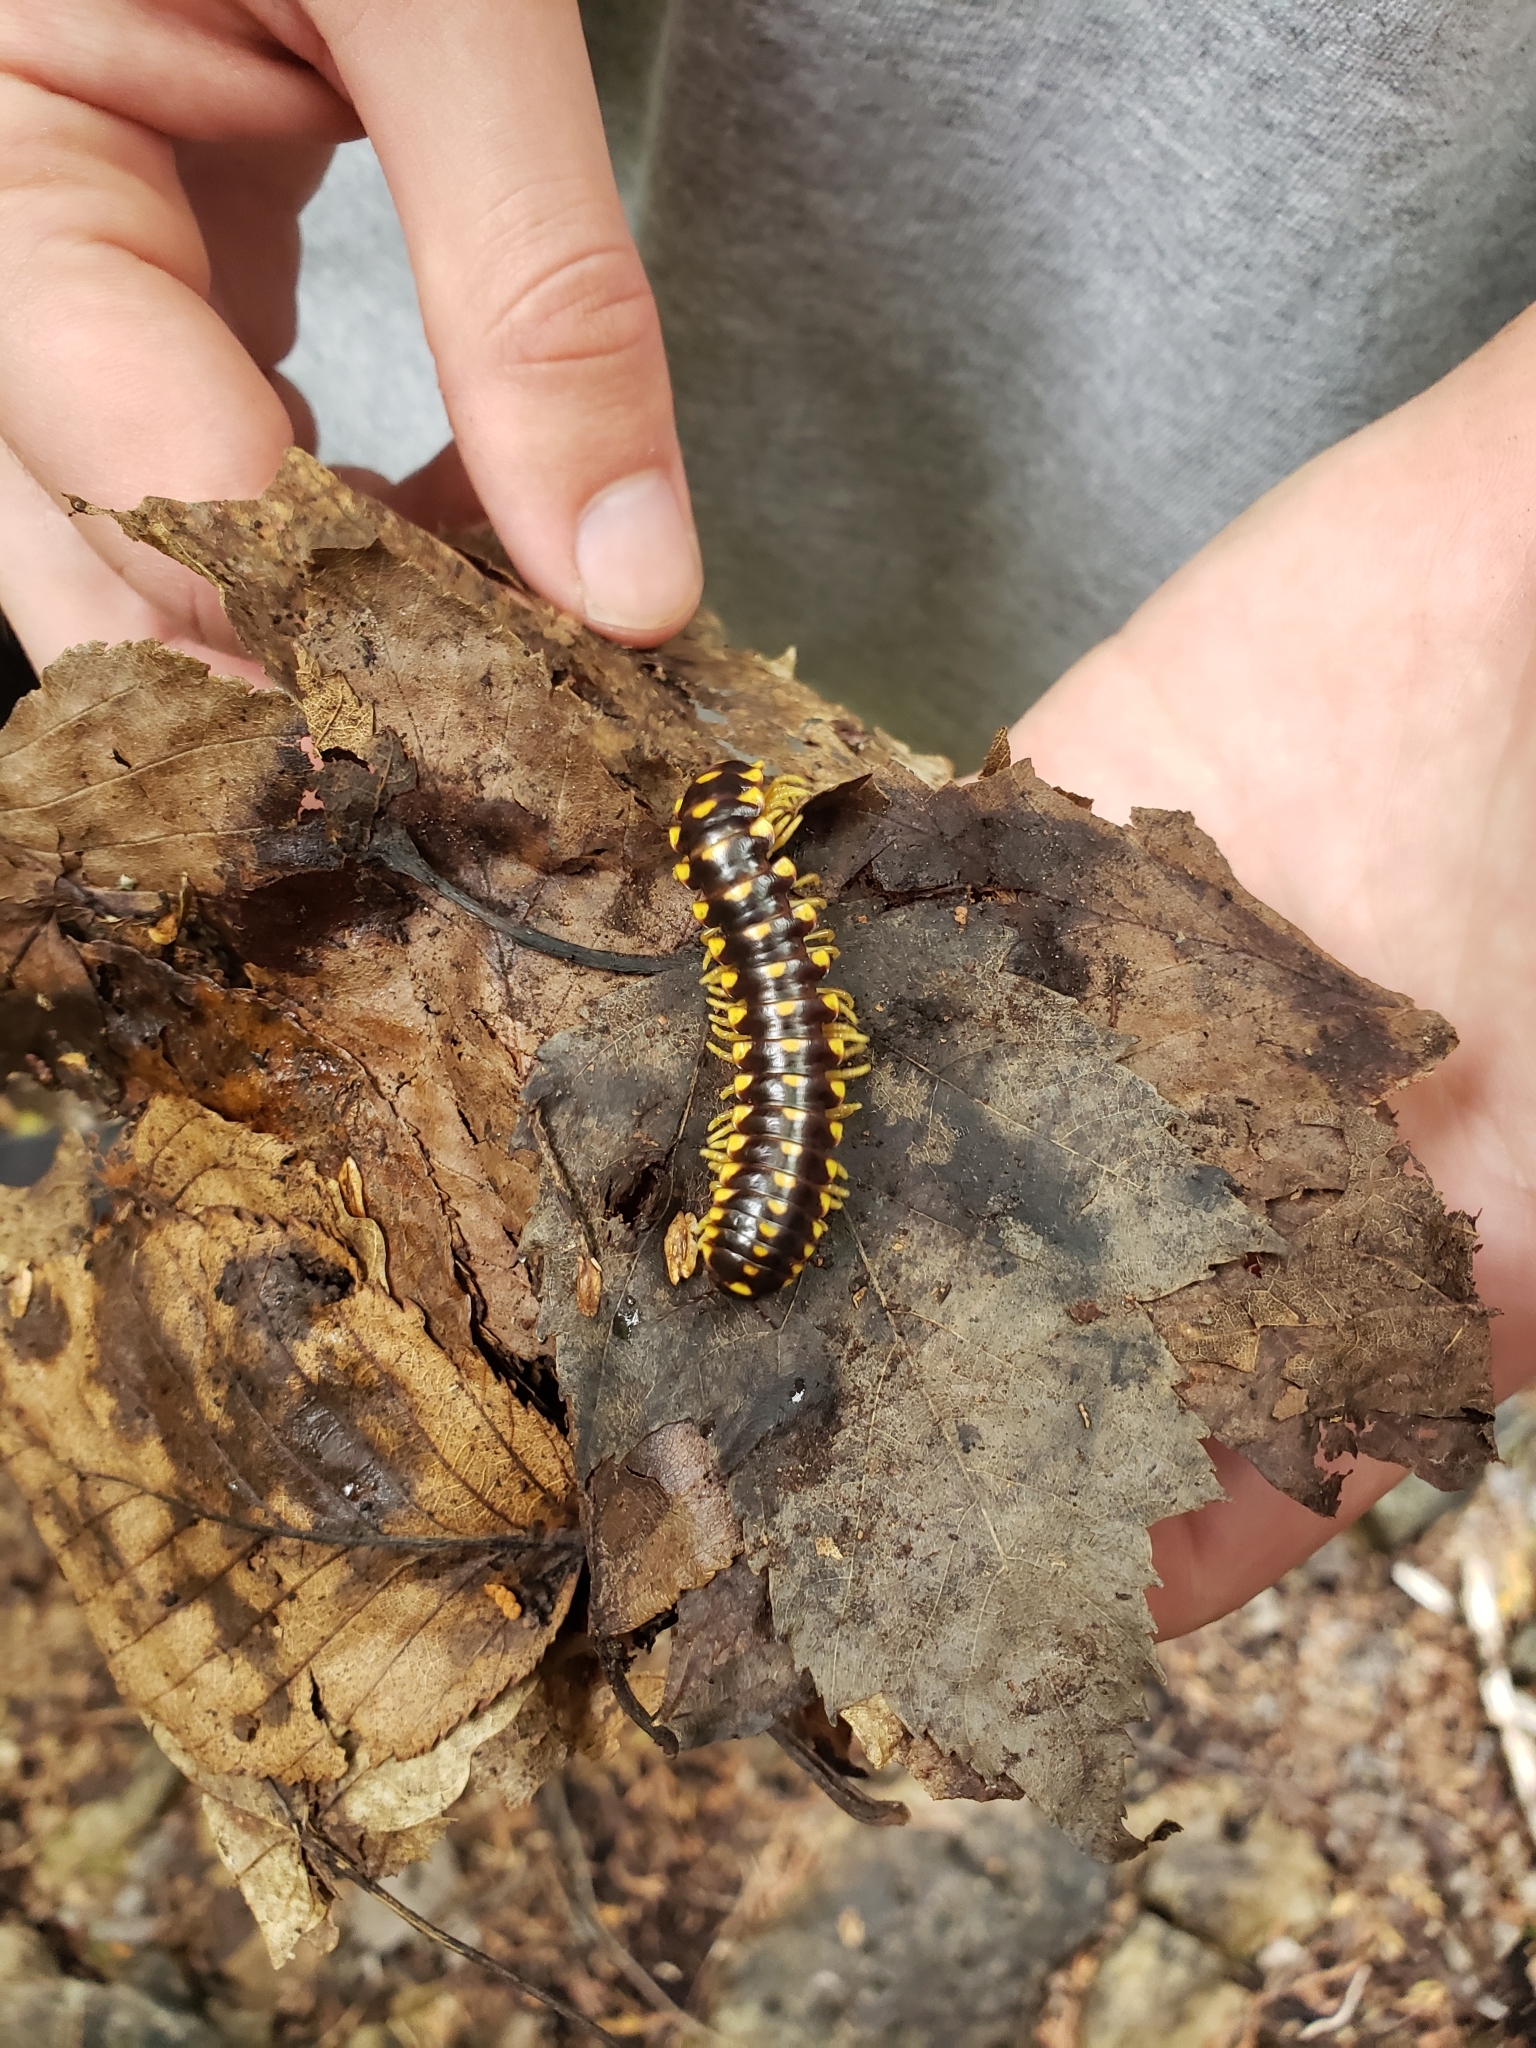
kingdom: Animalia
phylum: Arthropoda
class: Diplopoda
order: Polydesmida
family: Xystodesmidae
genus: Rudiloria
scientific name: Rudiloria trimaculata
